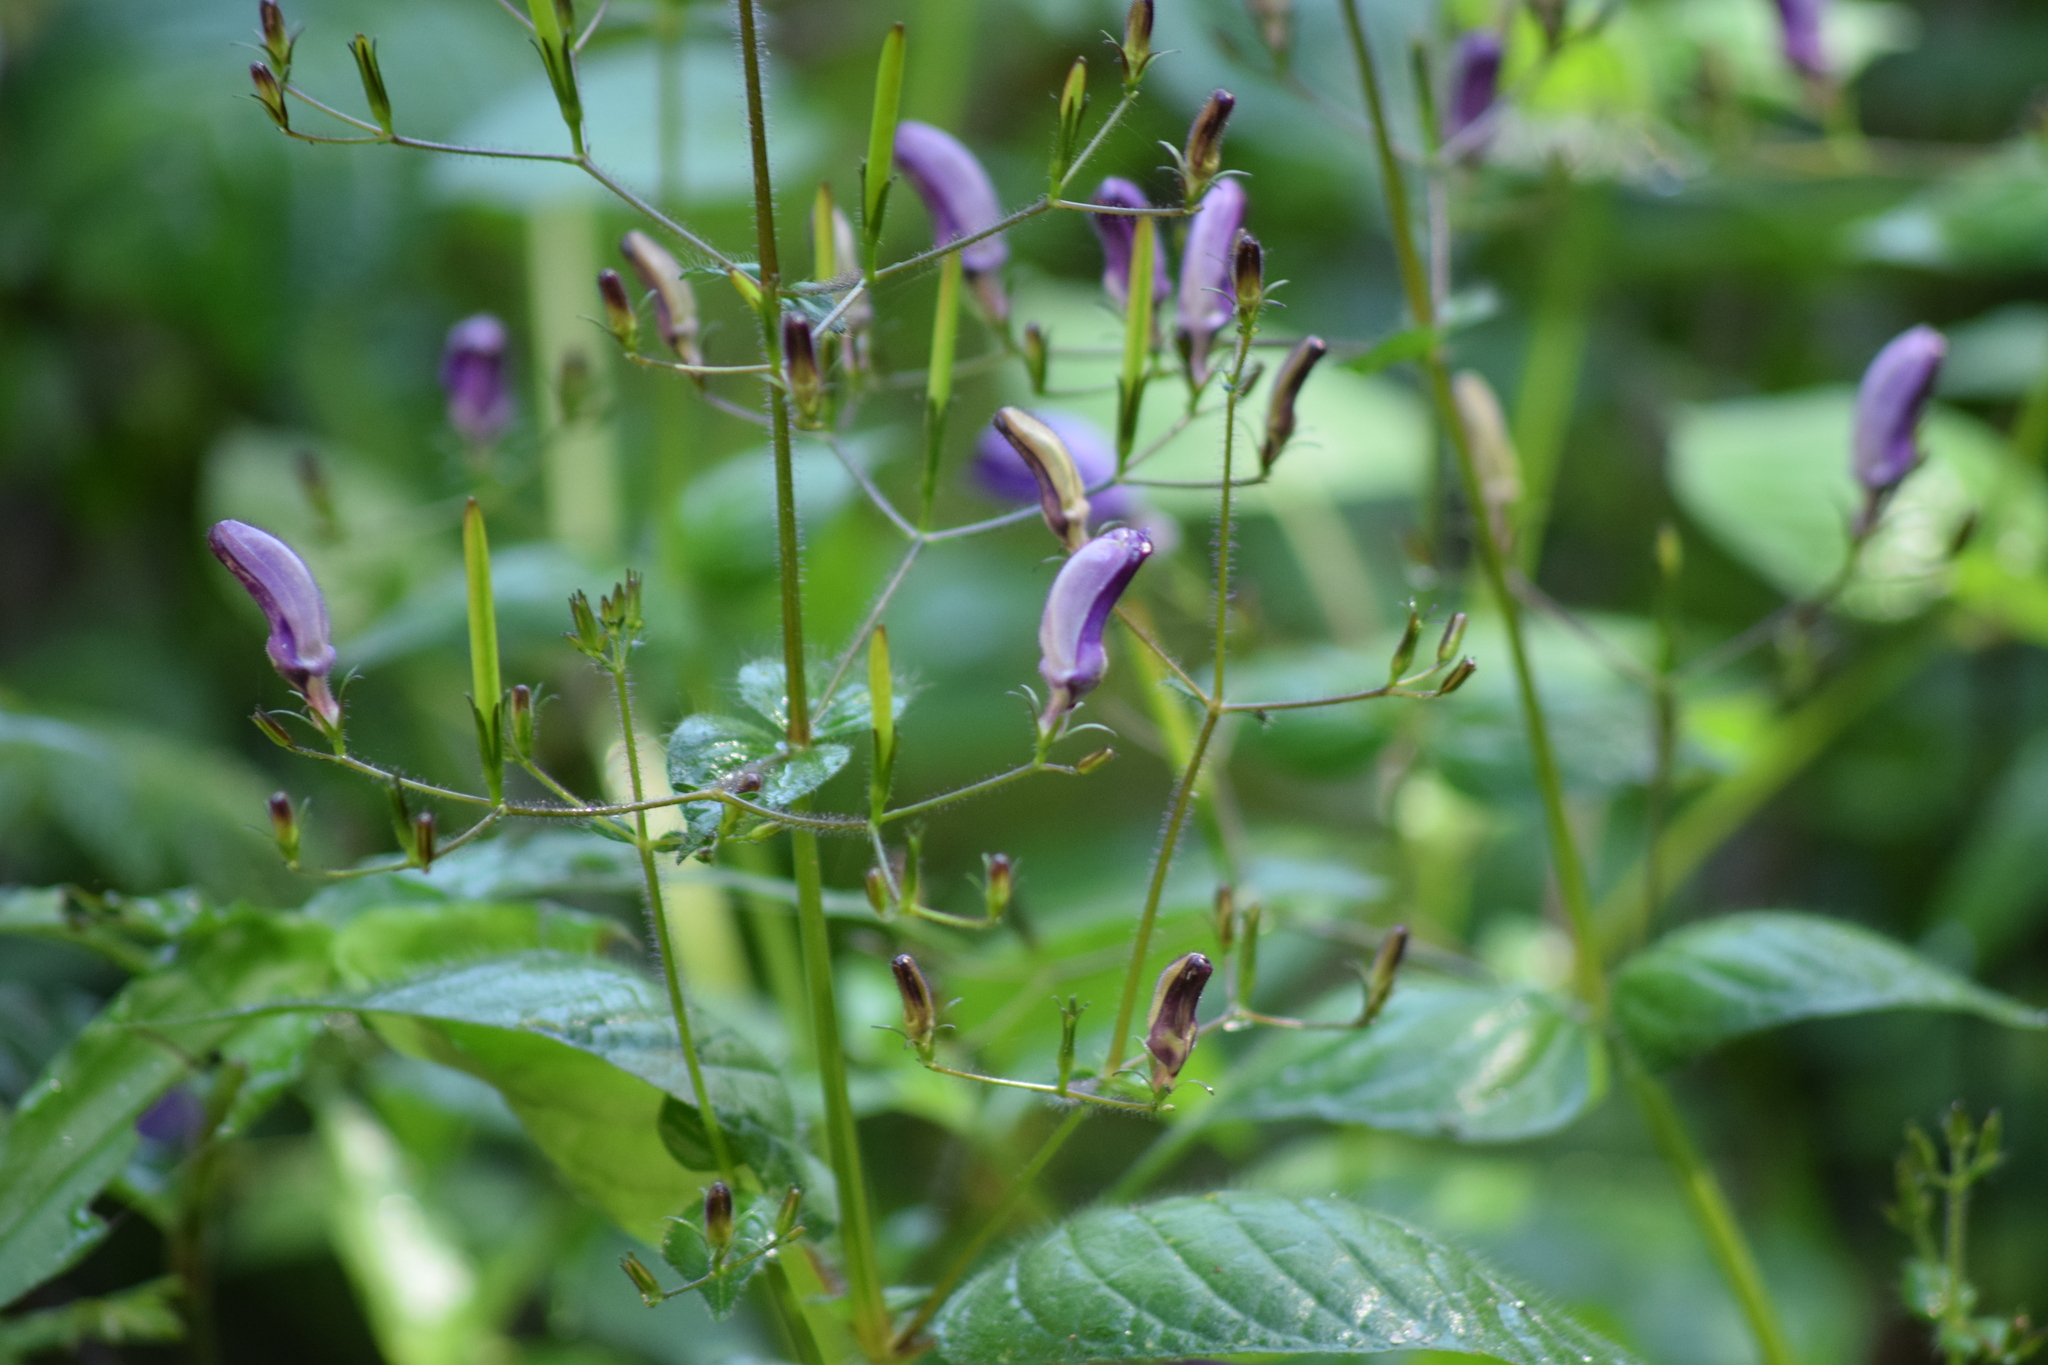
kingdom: Plantae
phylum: Tracheophyta
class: Magnoliopsida
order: Lamiales
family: Acanthaceae
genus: Brillantaisia
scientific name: Brillantaisia lamium
